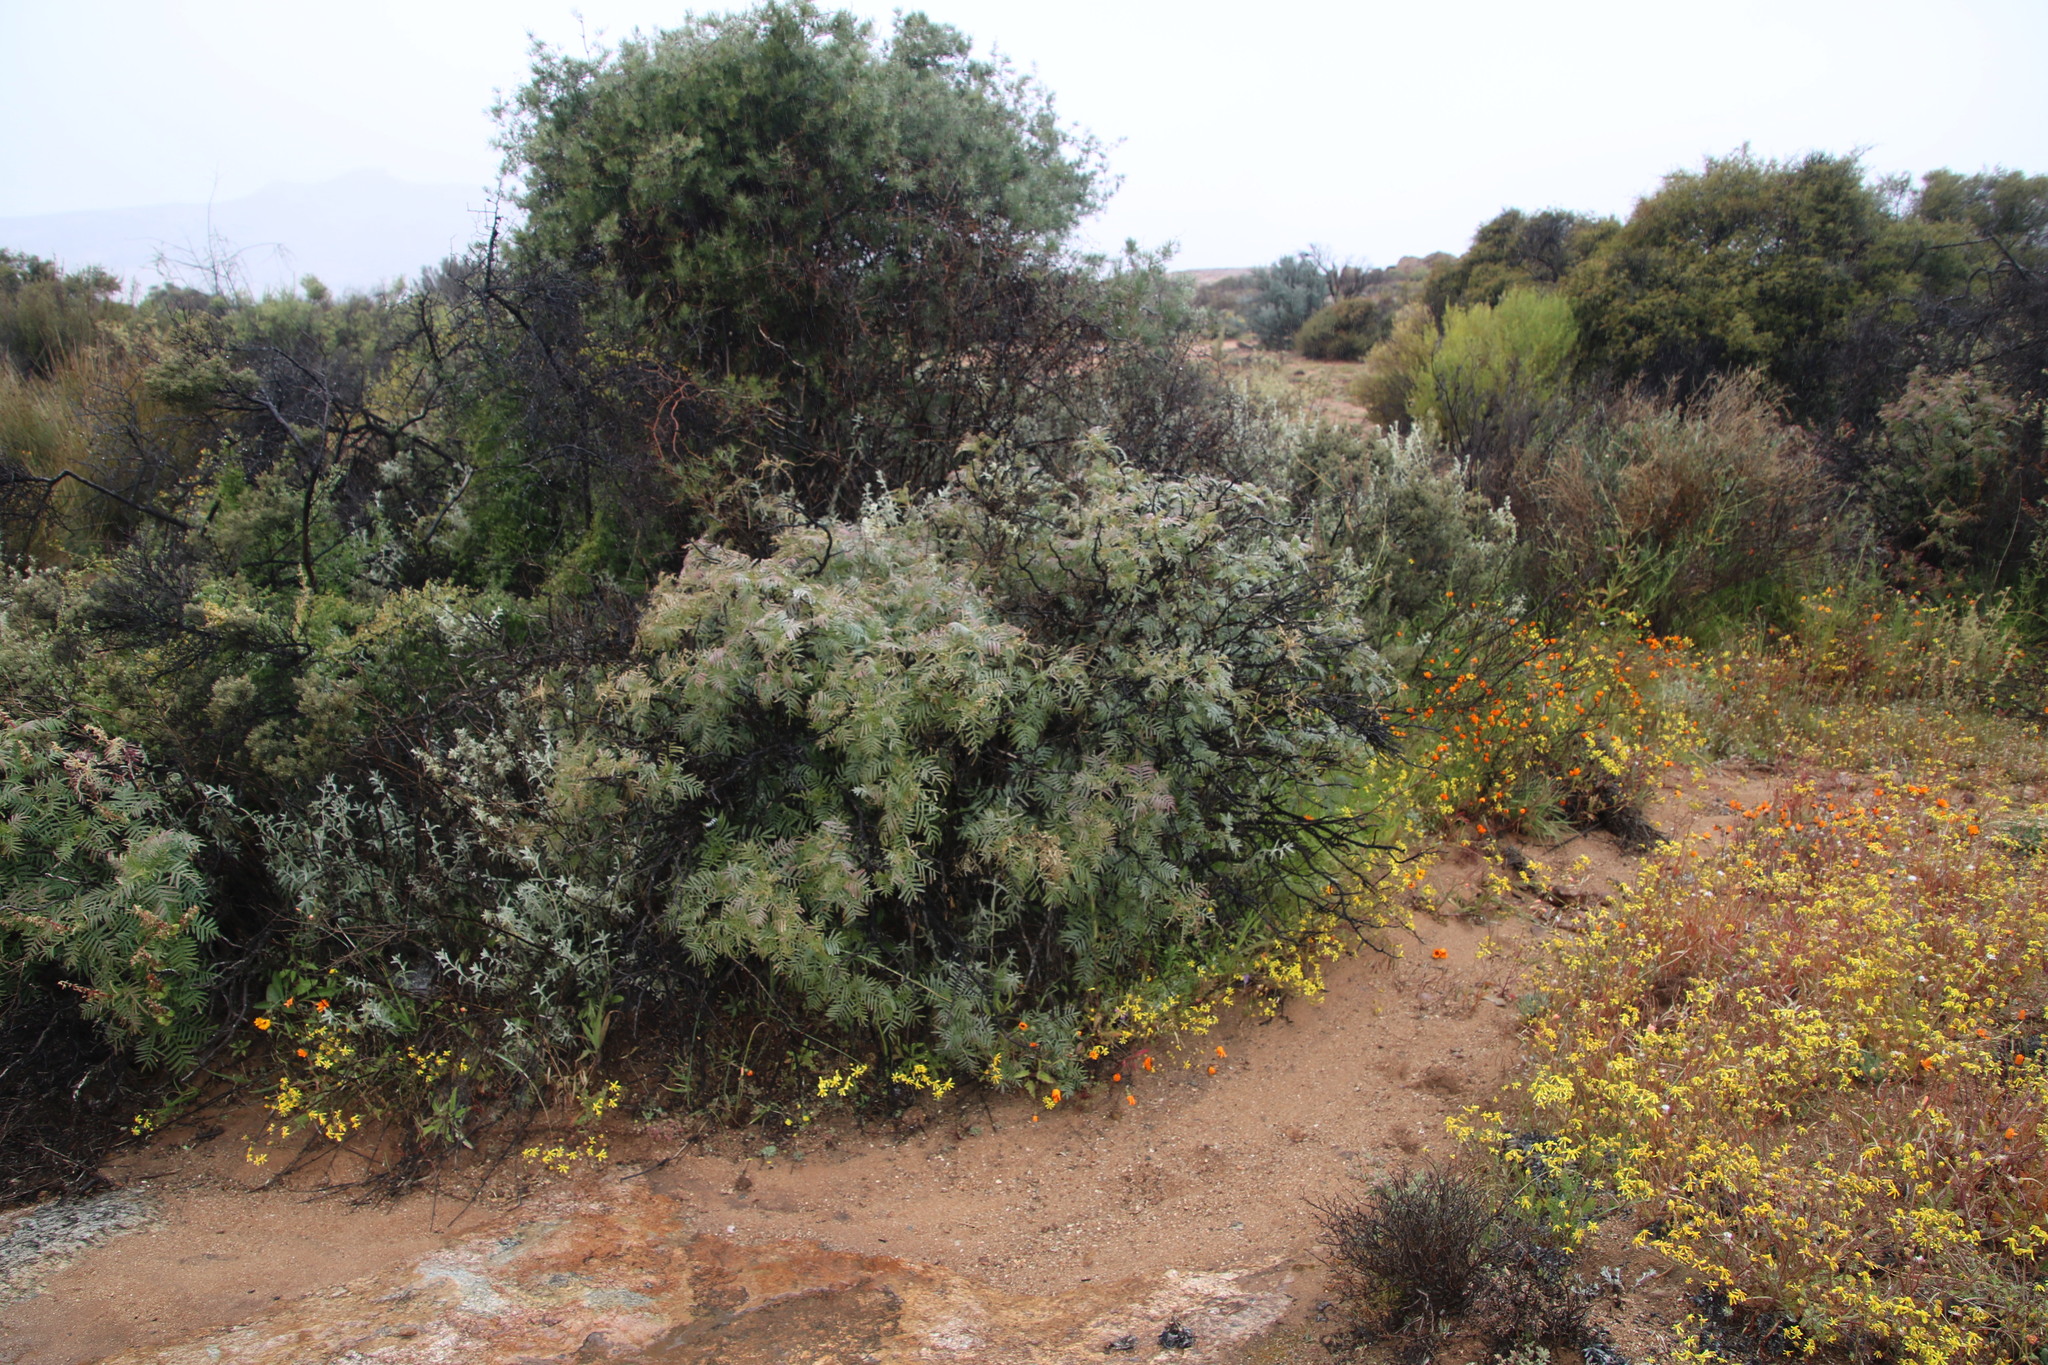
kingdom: Plantae
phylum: Tracheophyta
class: Magnoliopsida
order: Geraniales
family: Melianthaceae
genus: Melianthus
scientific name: Melianthus pectinatus
